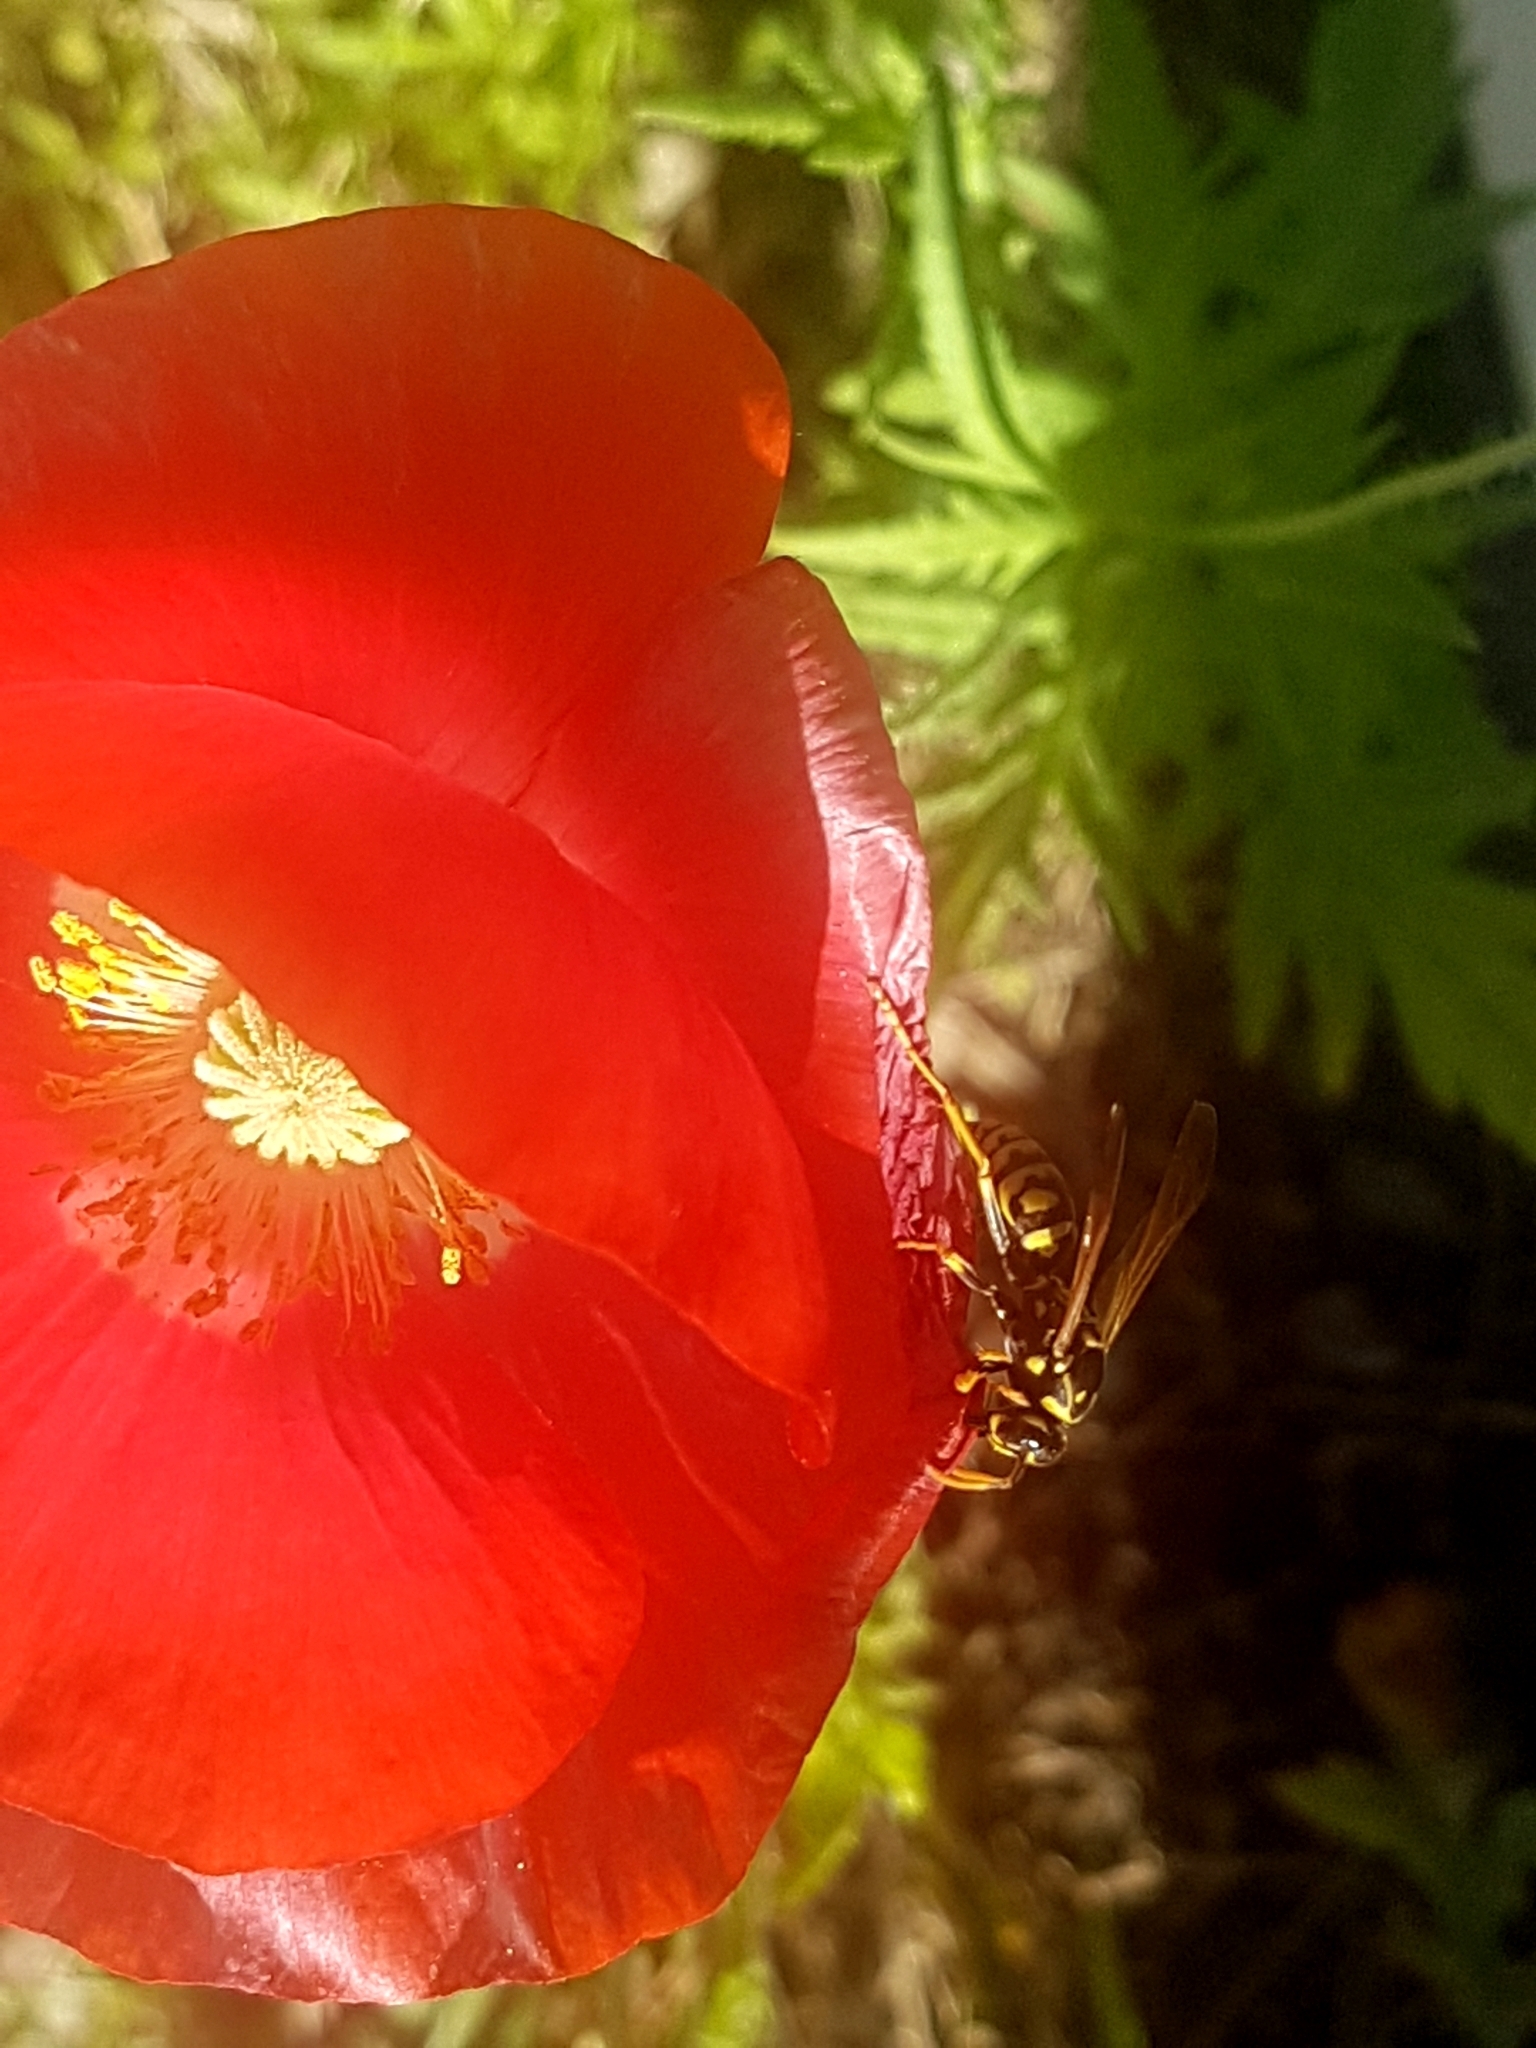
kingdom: Animalia
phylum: Arthropoda
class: Insecta
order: Hymenoptera
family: Eumenidae
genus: Polistes
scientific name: Polistes dominula
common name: Paper wasp
